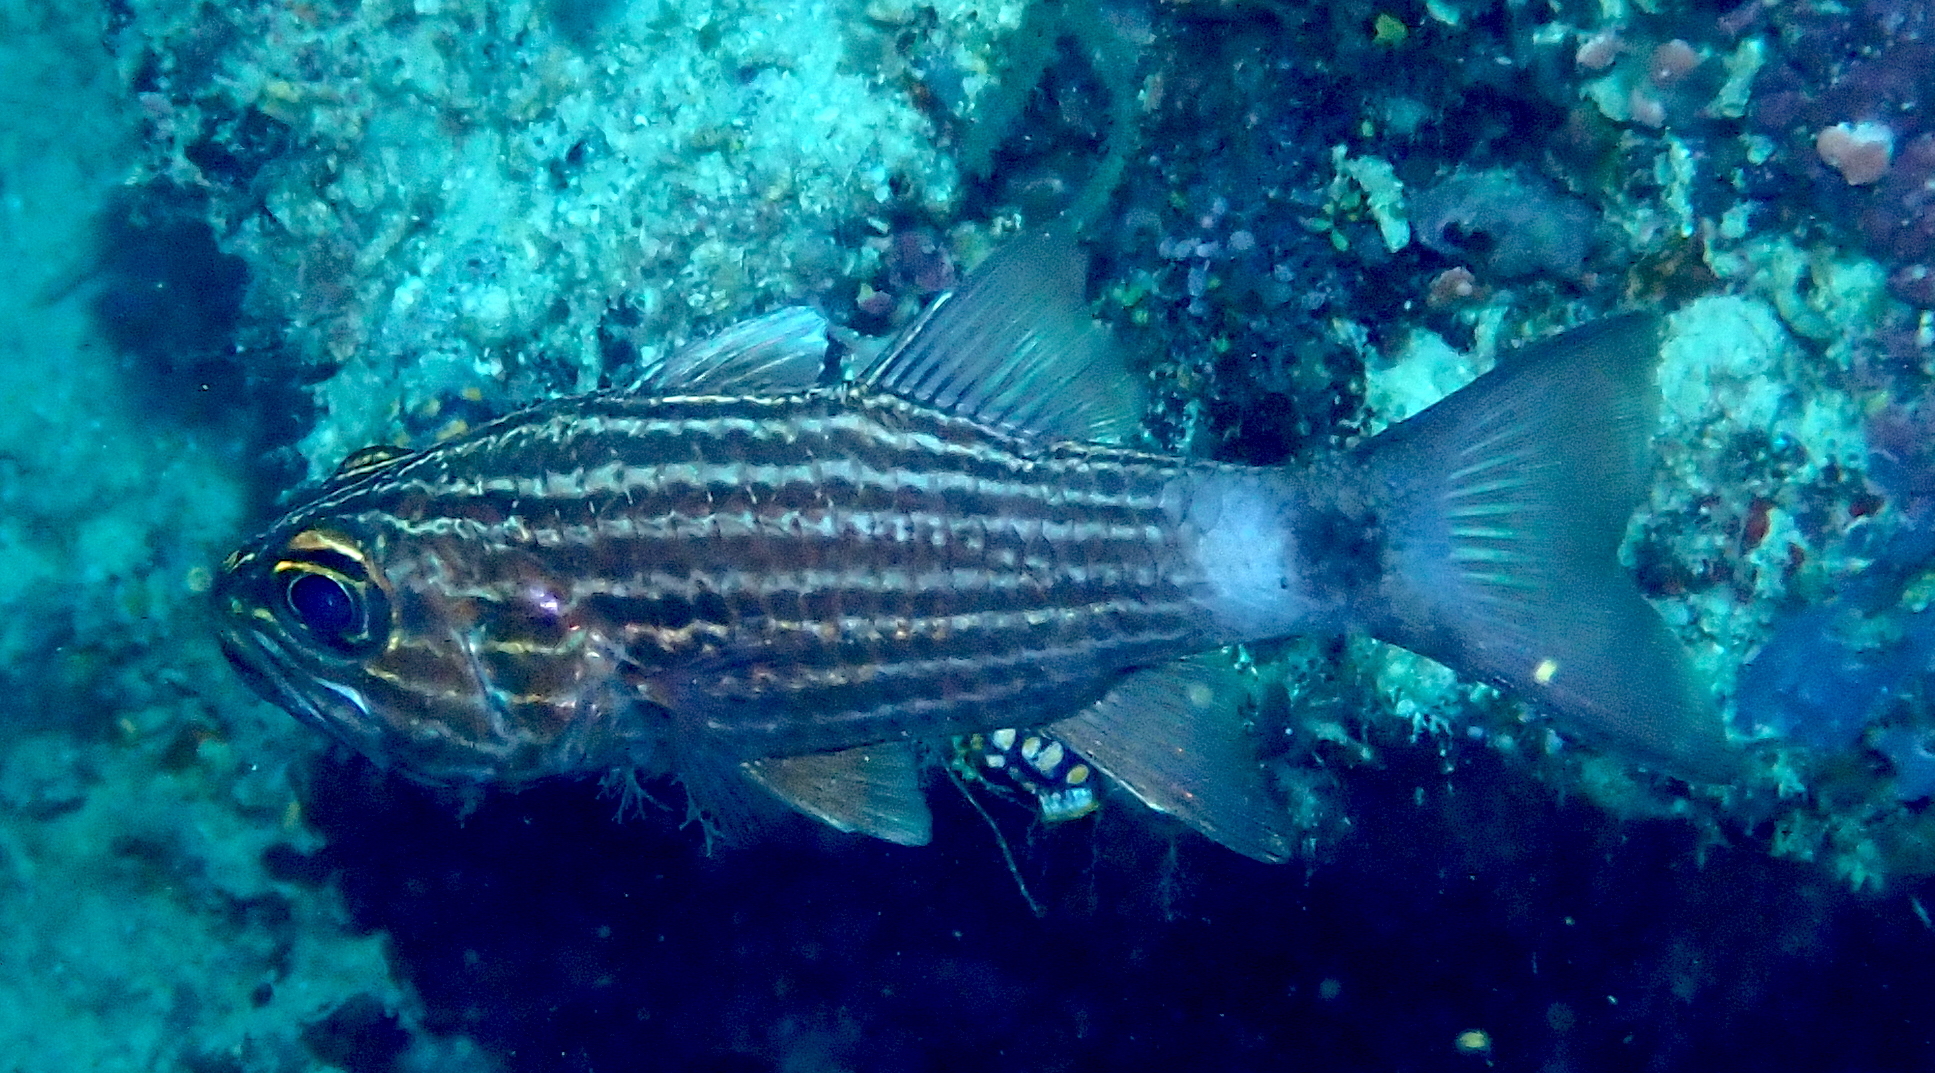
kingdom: Animalia
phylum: Chordata
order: Perciformes
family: Apogonidae
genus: Cheilodipterus
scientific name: Cheilodipterus macrodon
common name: Eight-lined cardinalfish
